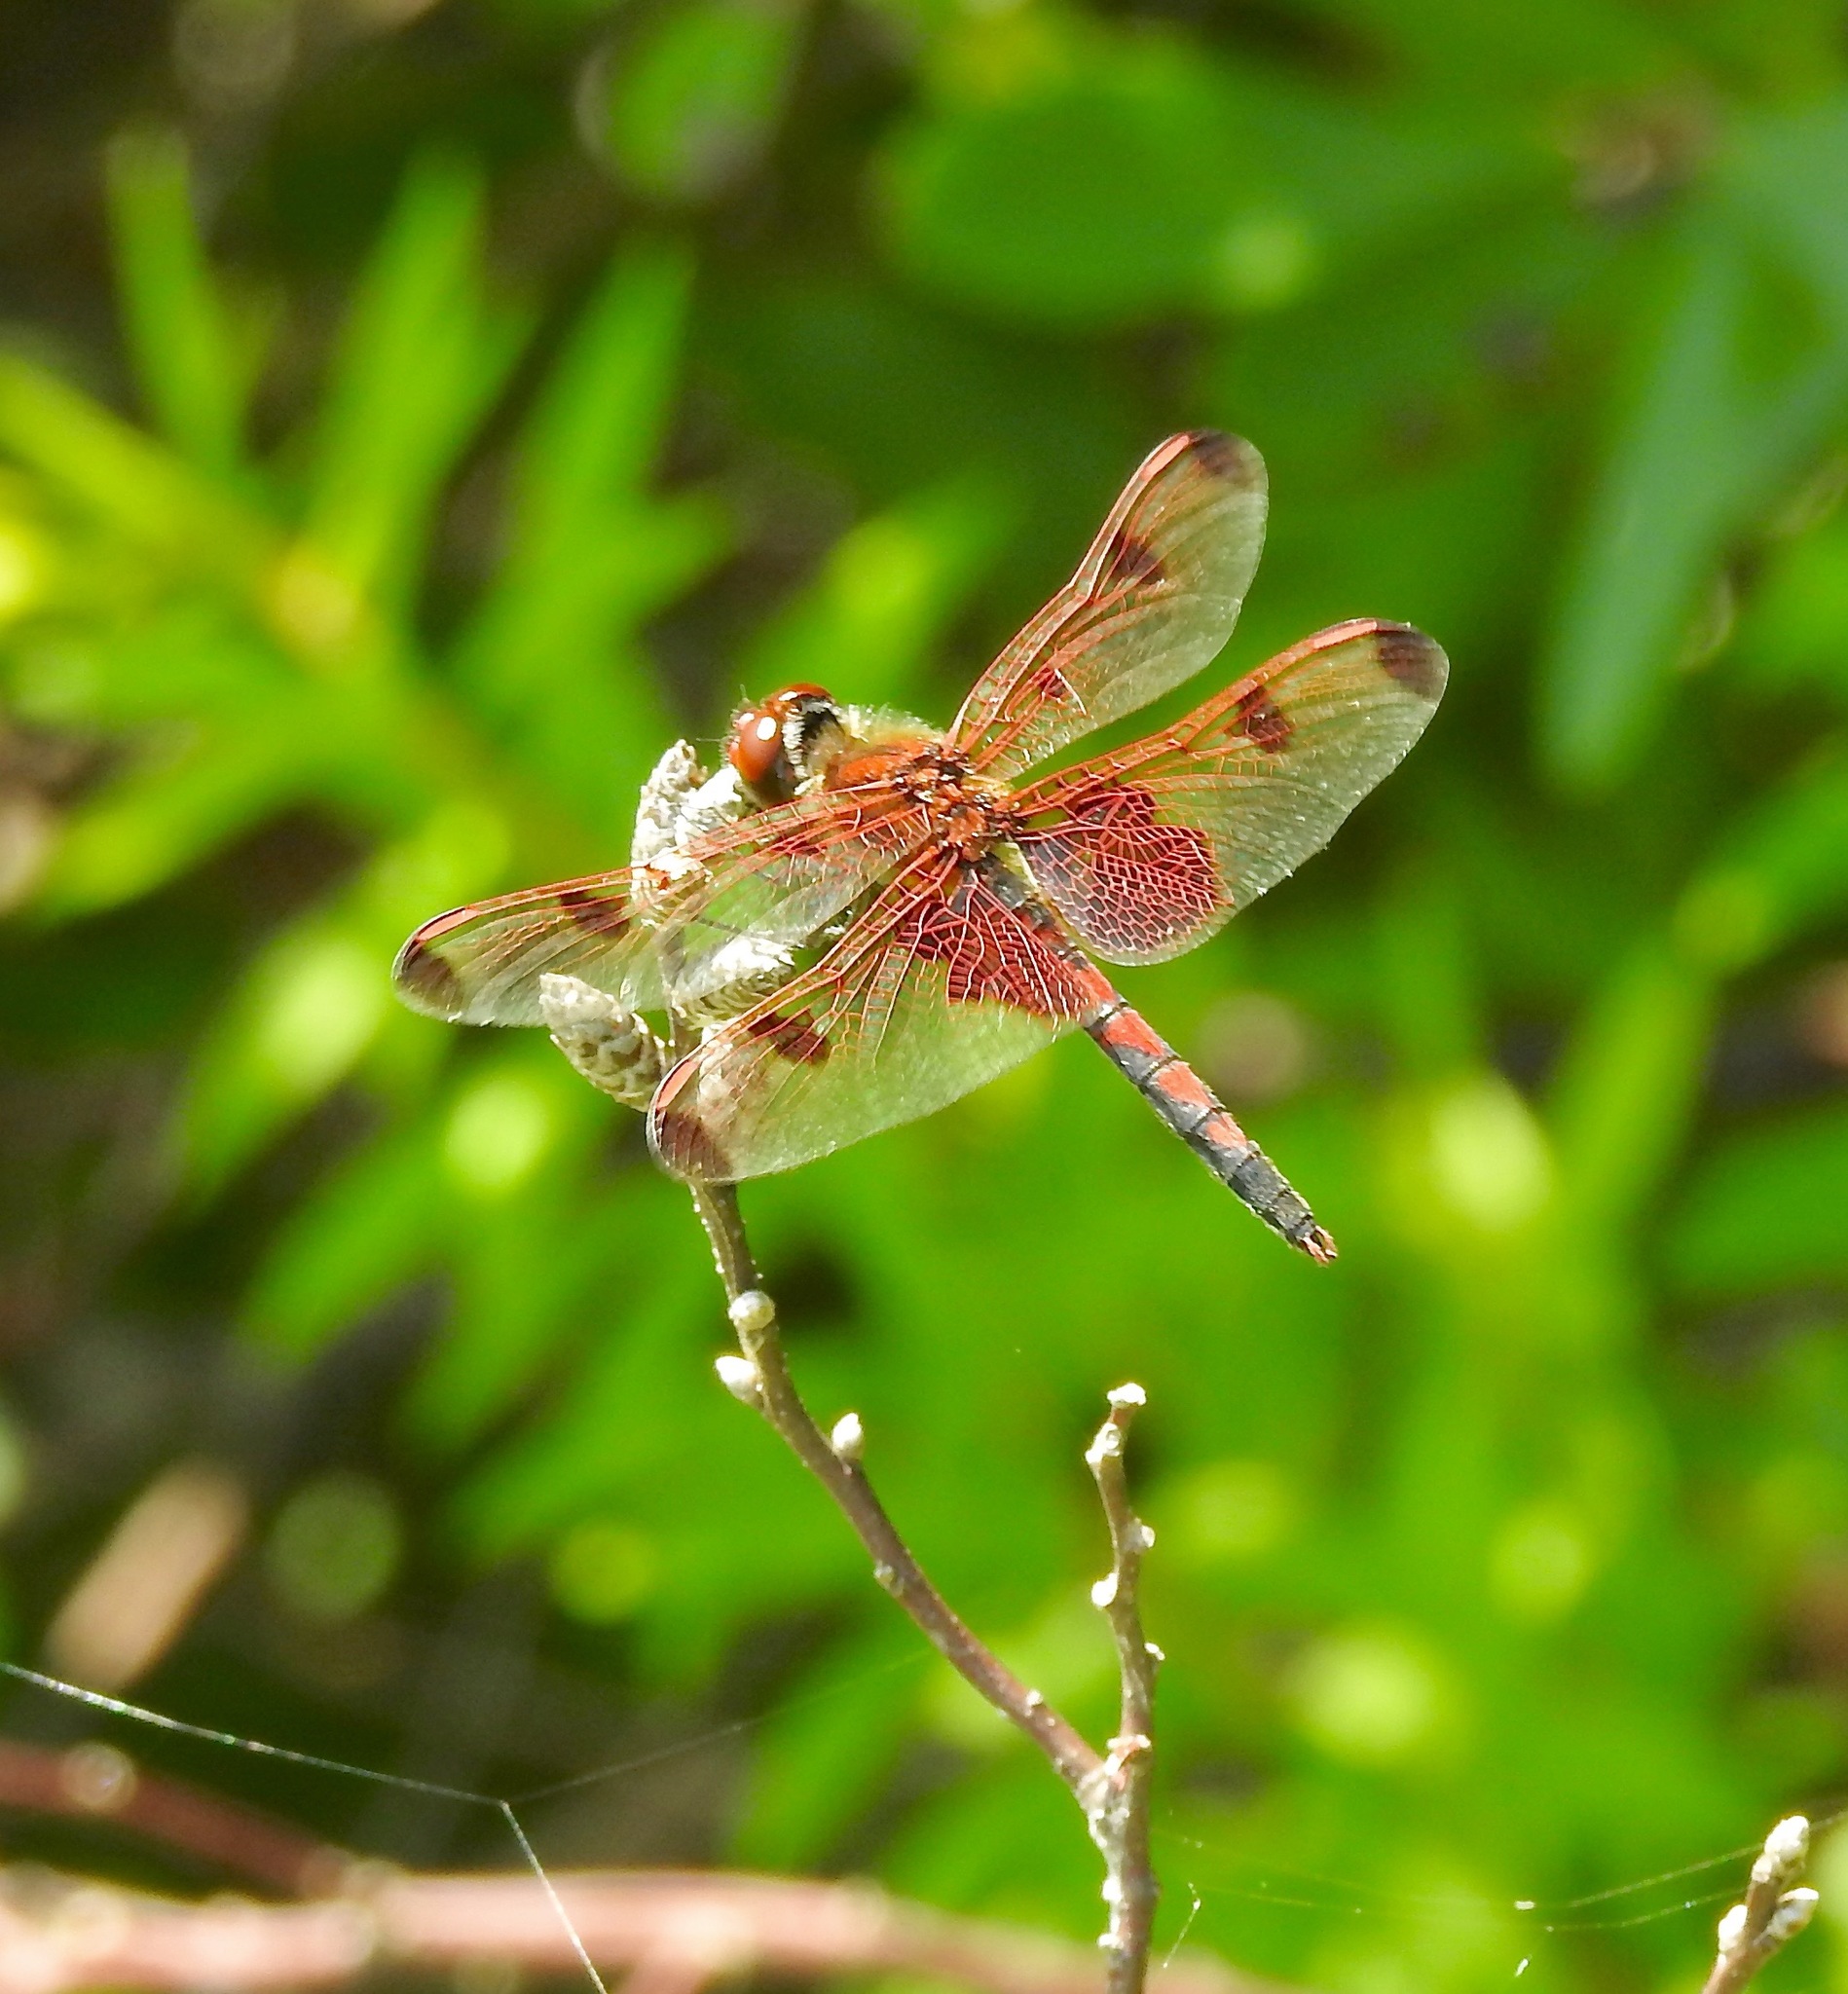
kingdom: Animalia
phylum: Arthropoda
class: Insecta
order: Odonata
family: Libellulidae
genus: Celithemis
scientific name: Celithemis elisa
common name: Calico pennant
